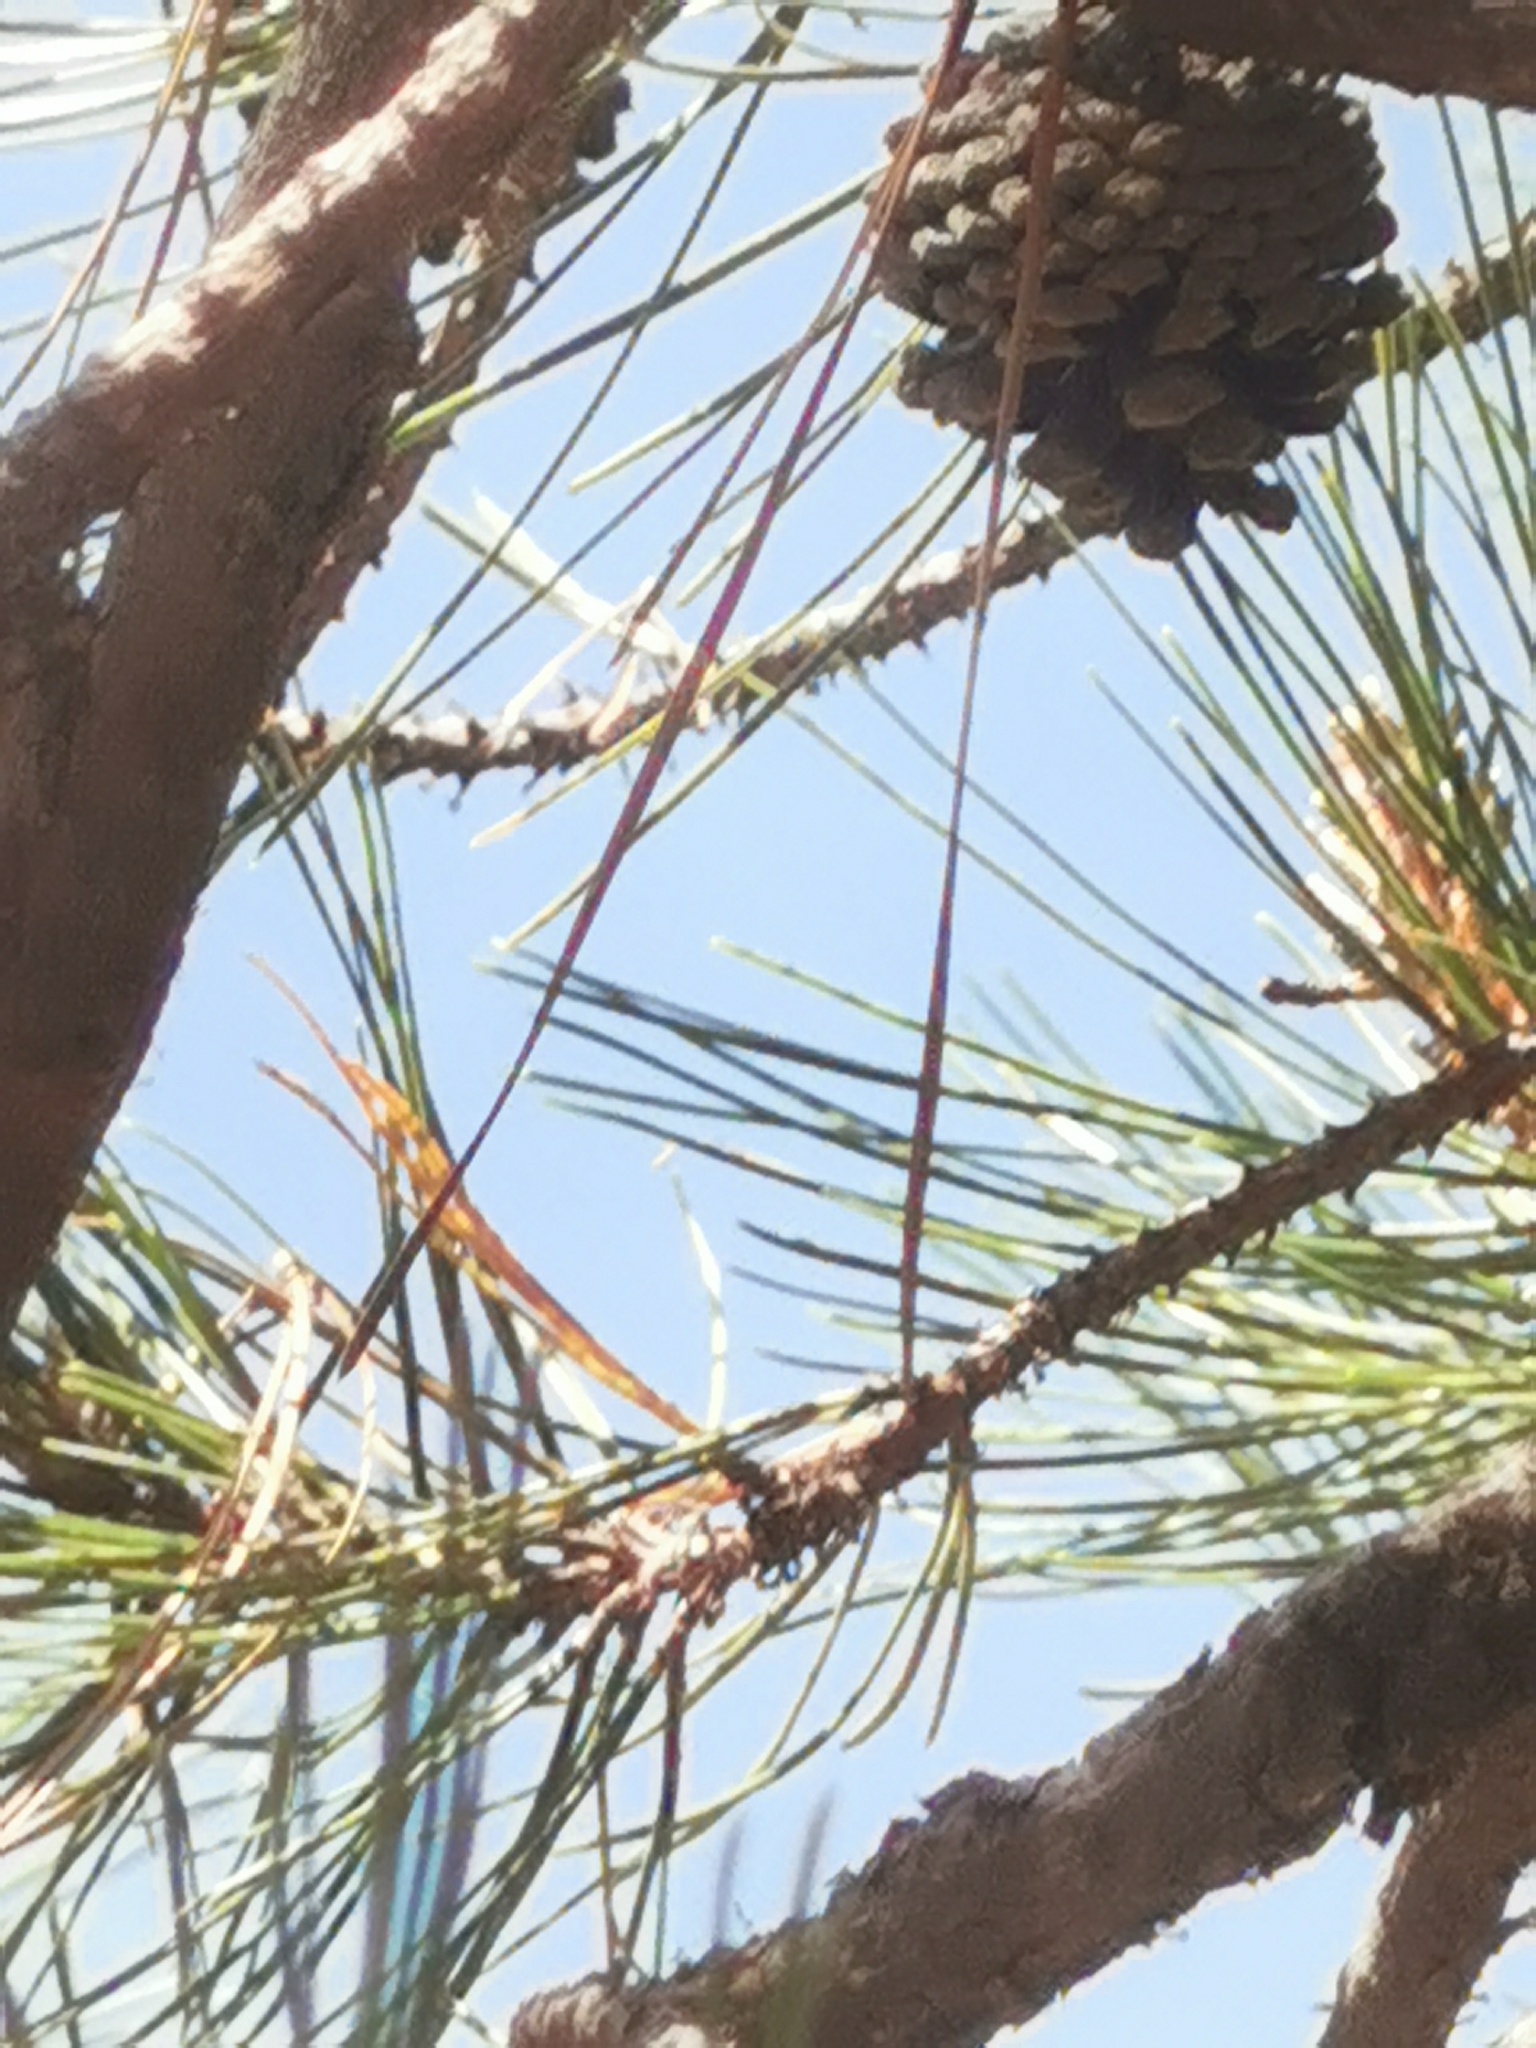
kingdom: Plantae
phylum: Tracheophyta
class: Pinopsida
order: Pinales
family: Pinaceae
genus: Pinus
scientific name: Pinus teocote
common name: Aztec pine
